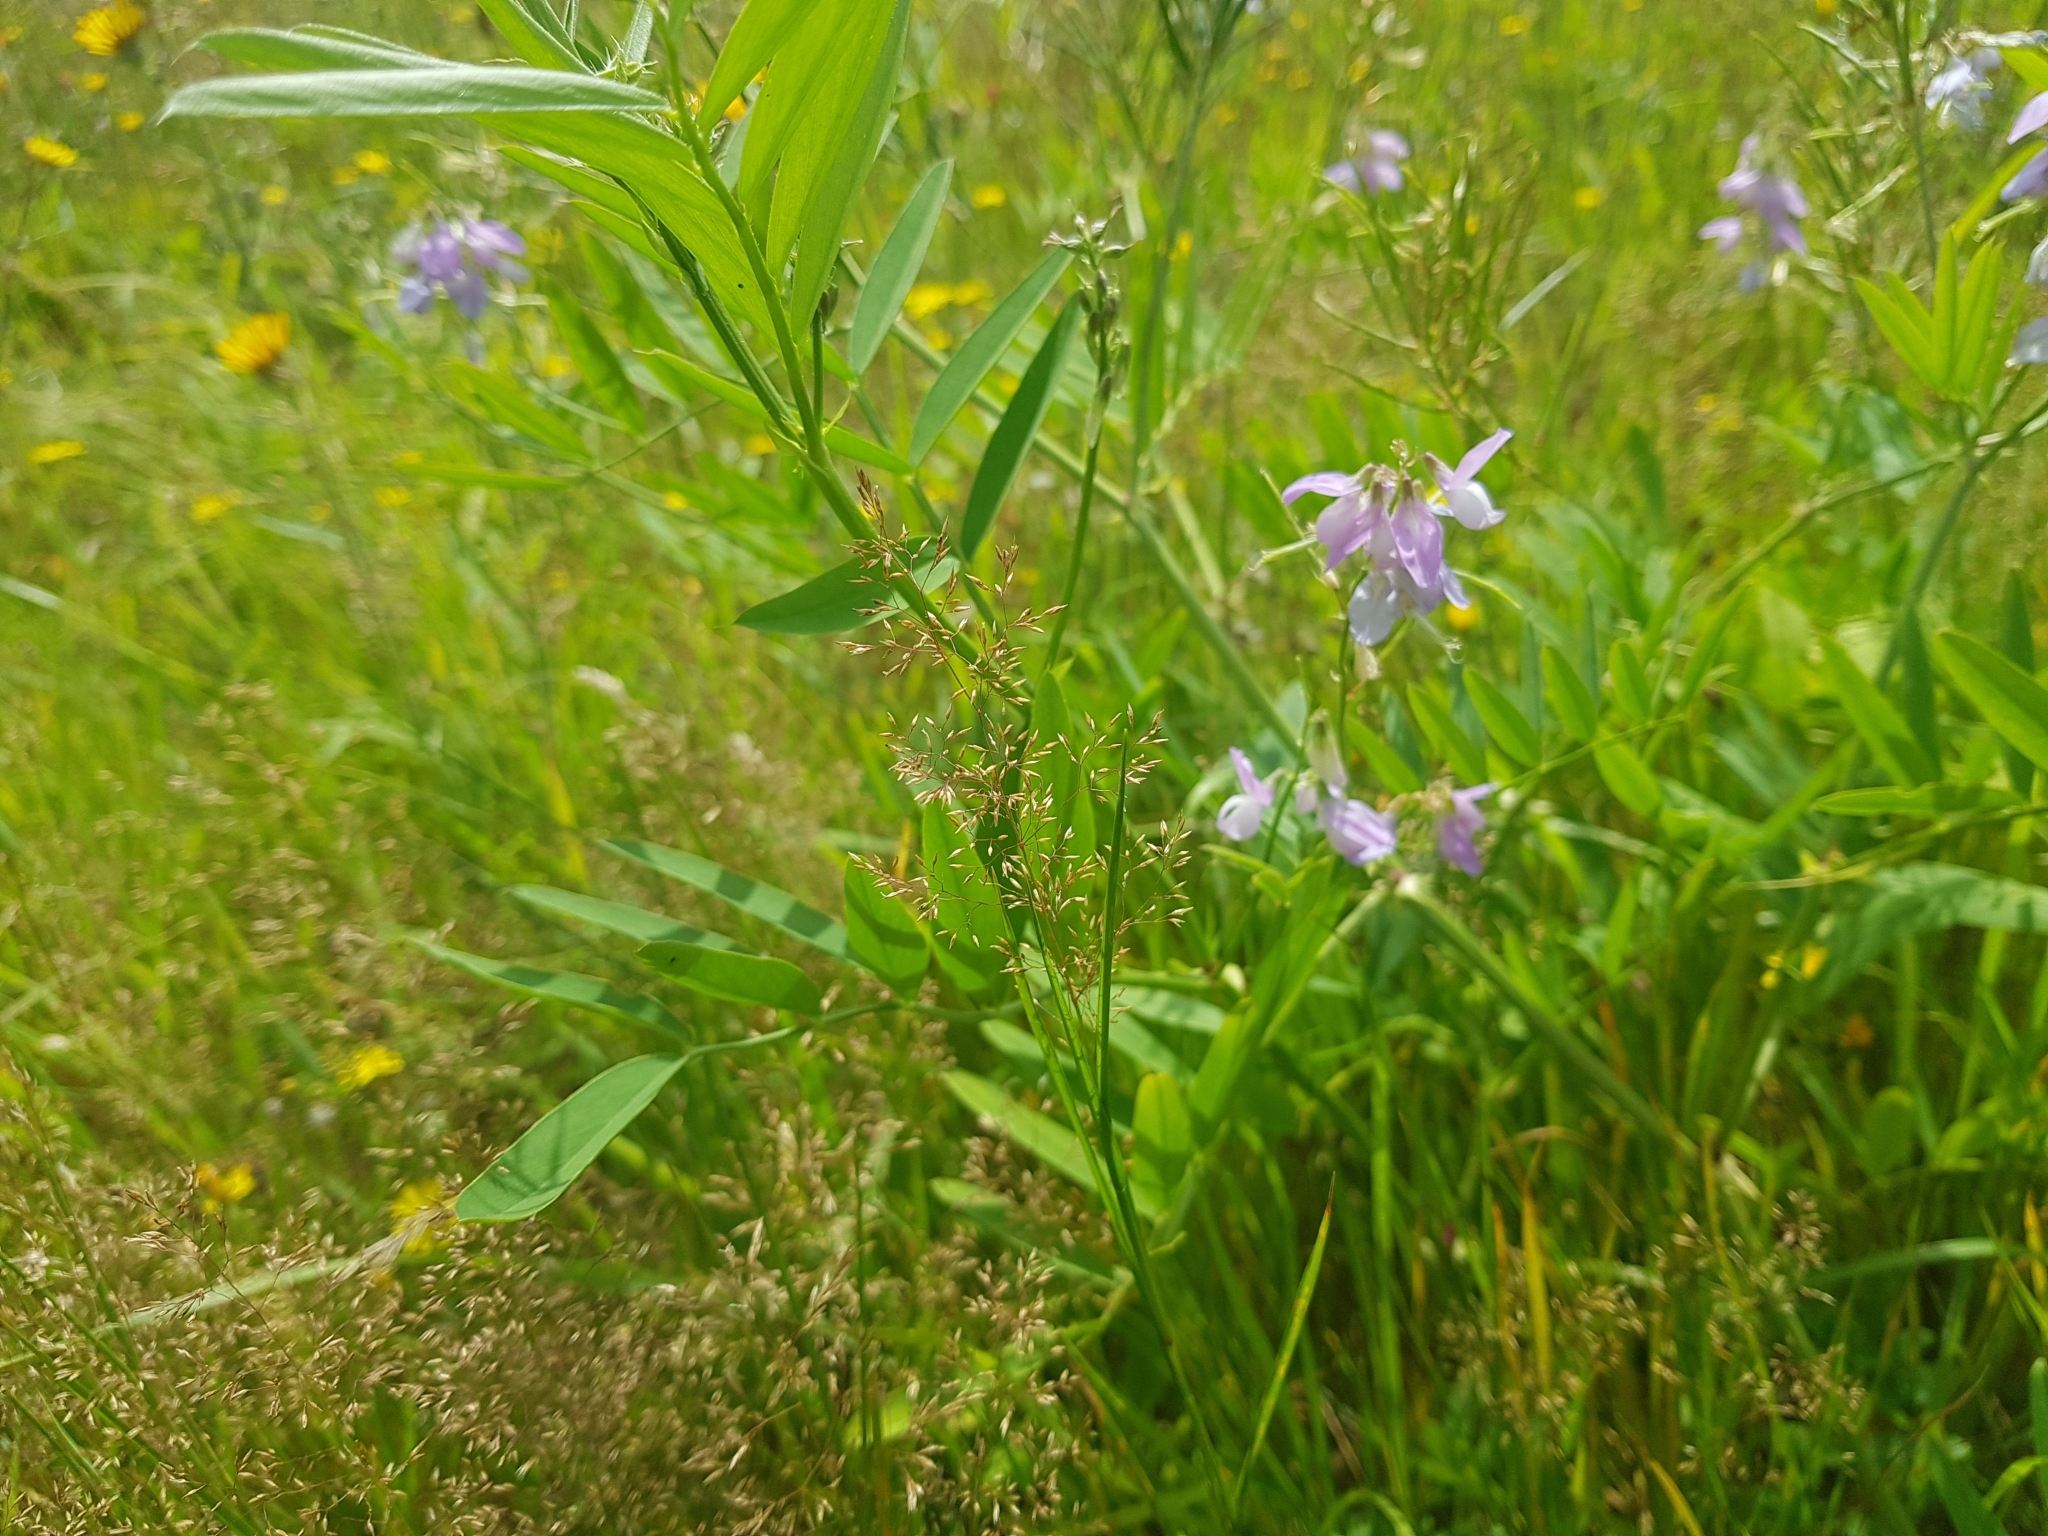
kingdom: Plantae
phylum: Tracheophyta
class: Magnoliopsida
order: Fabales
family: Fabaceae
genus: Galega
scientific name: Galega officinalis
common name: Goat's-rue
